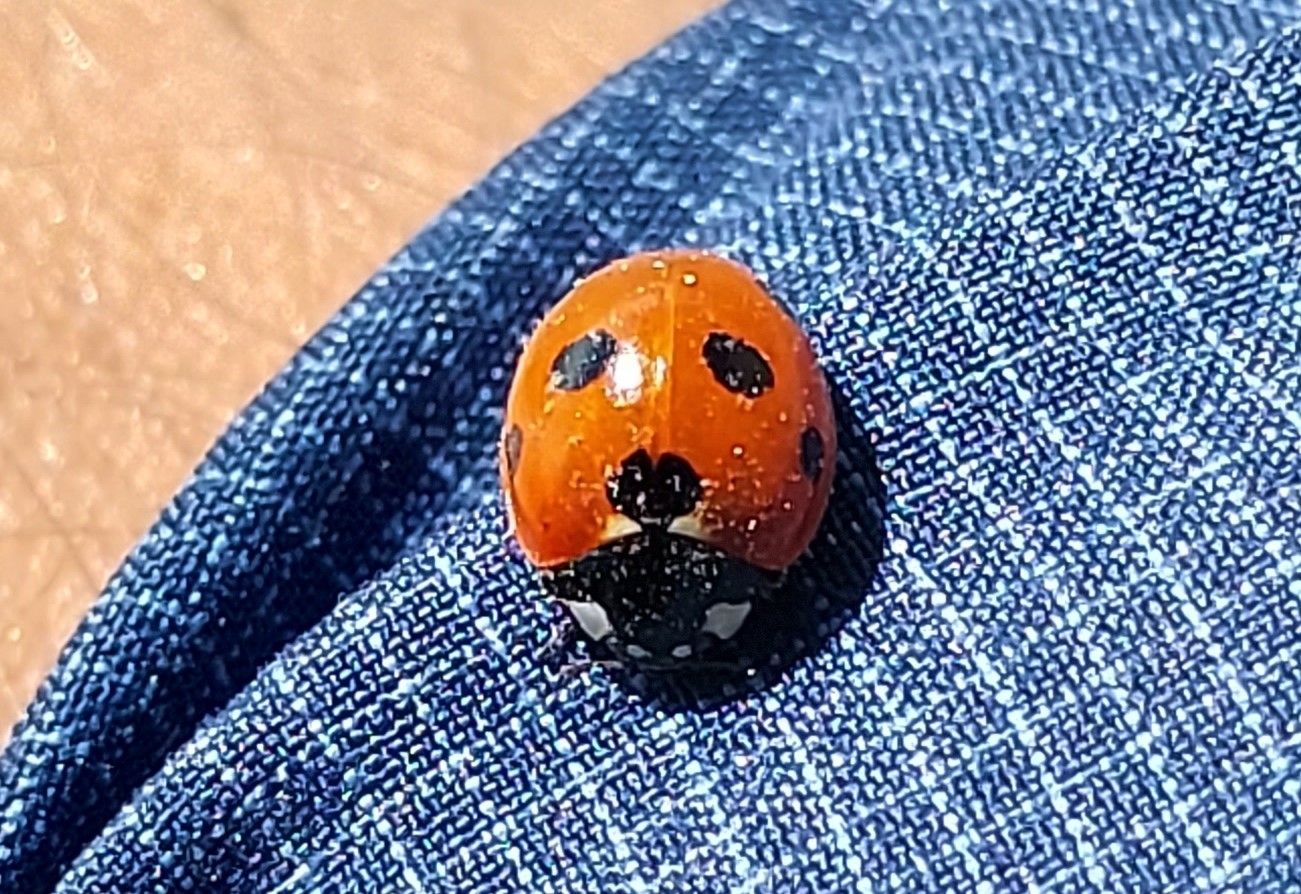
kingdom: Animalia
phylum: Arthropoda
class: Insecta
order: Coleoptera
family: Coccinellidae
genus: Coccinella
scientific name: Coccinella septempunctata
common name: Sevenspotted lady beetle
